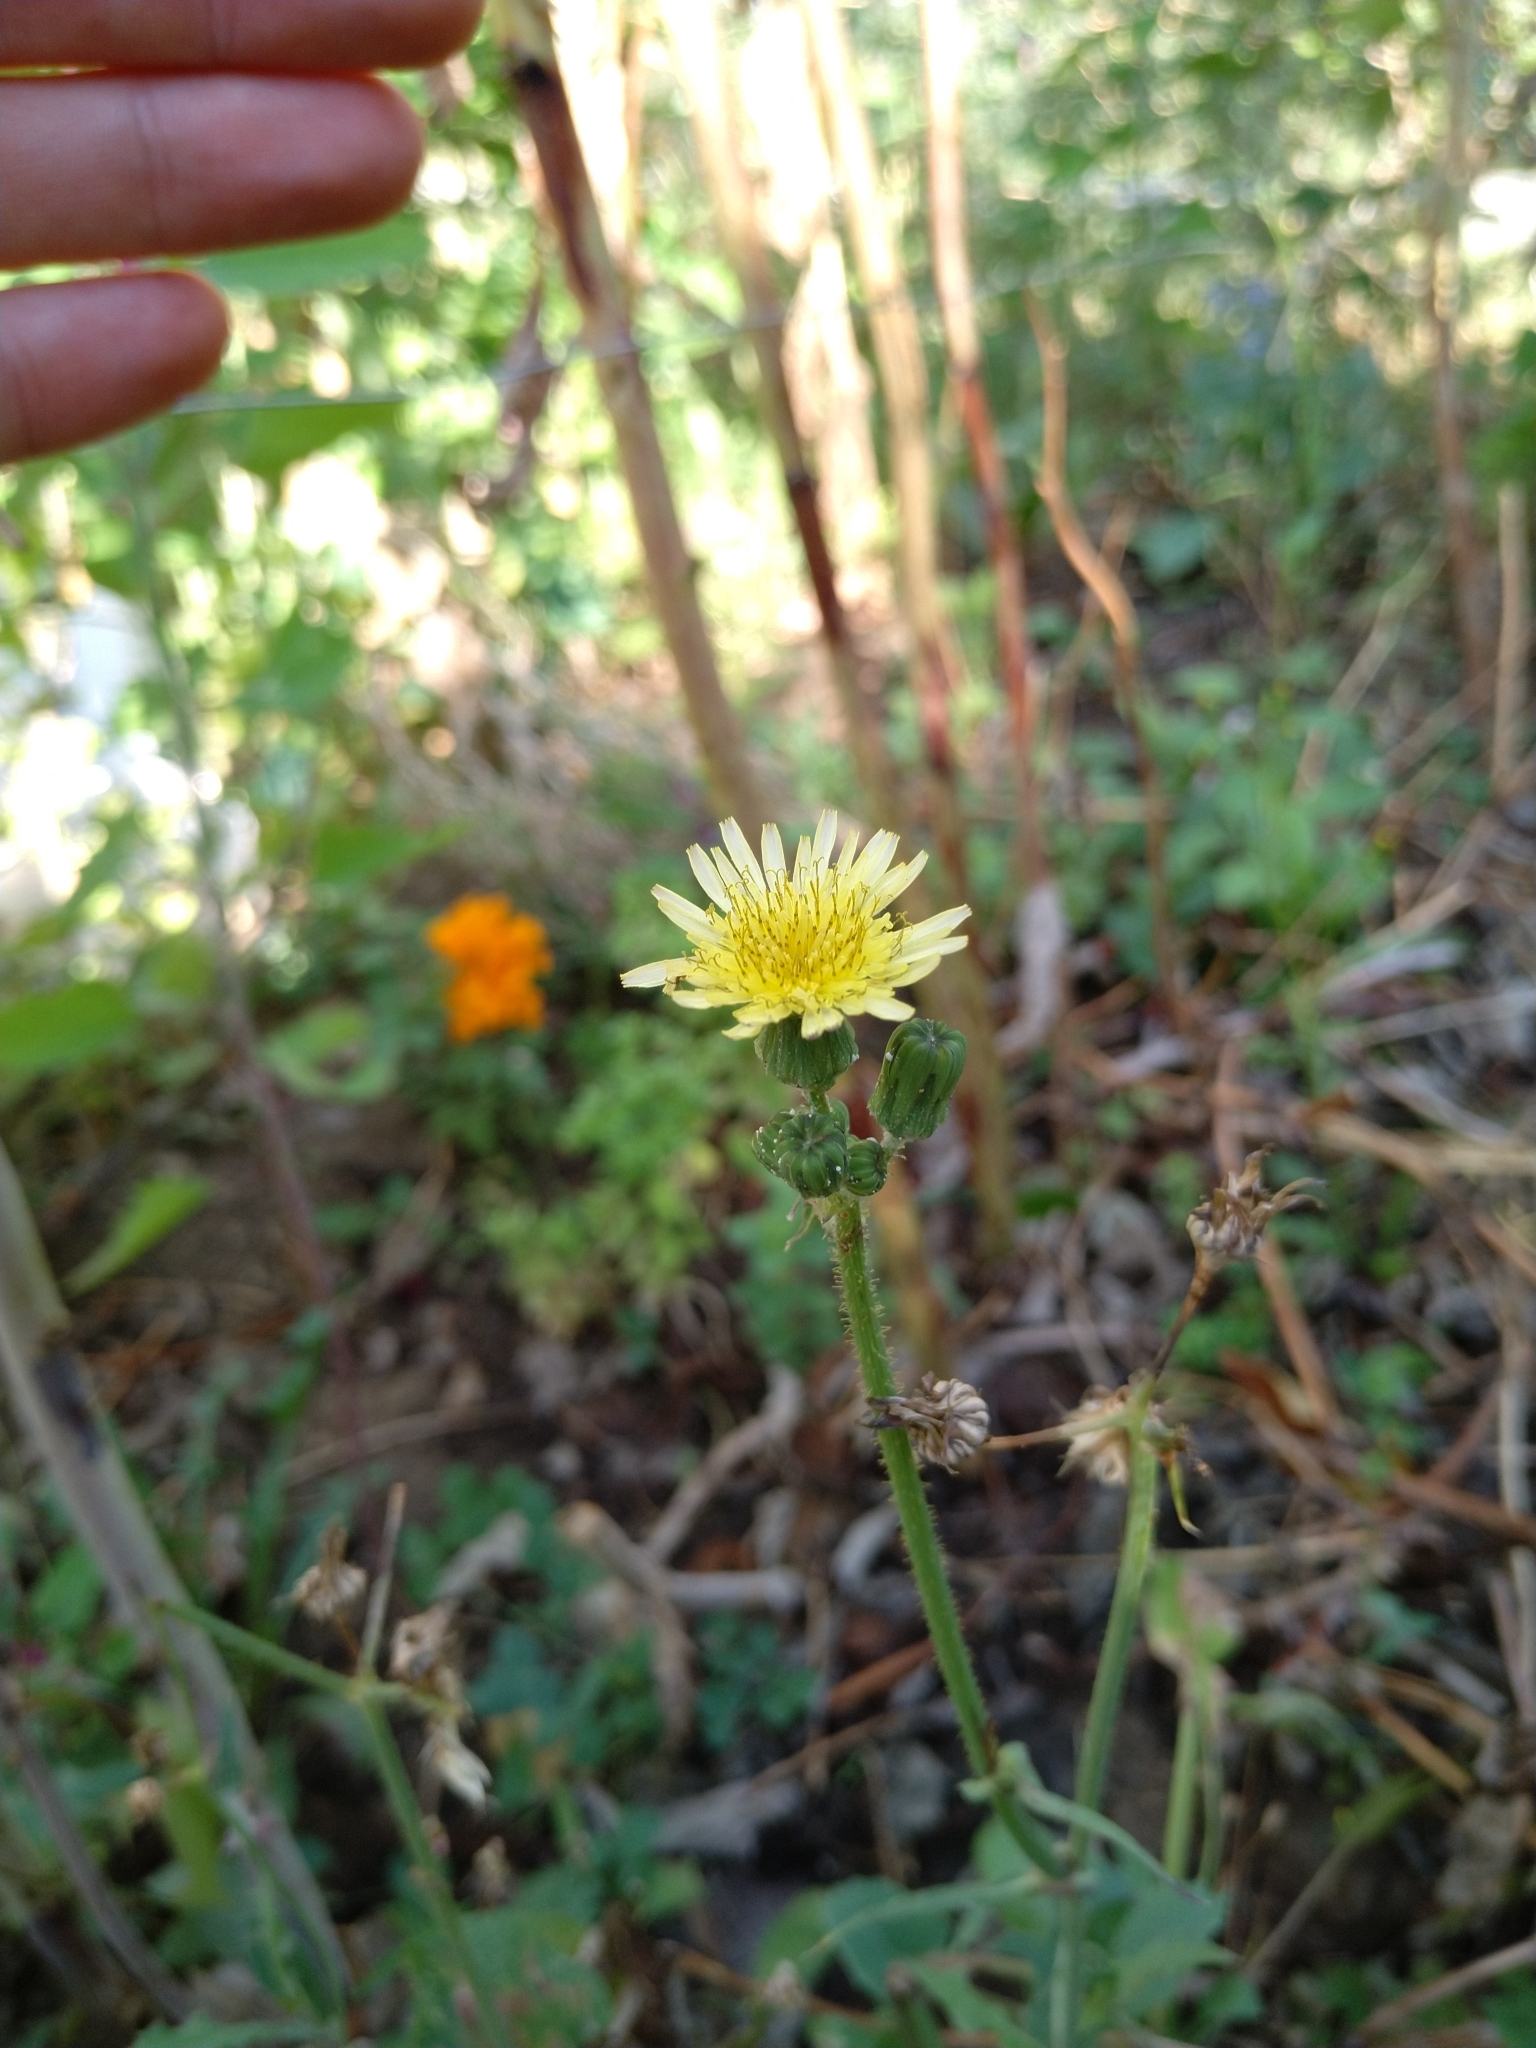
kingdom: Plantae
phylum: Tracheophyta
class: Magnoliopsida
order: Asterales
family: Asteraceae
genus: Sonchus
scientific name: Sonchus oleraceus
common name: Common sowthistle
